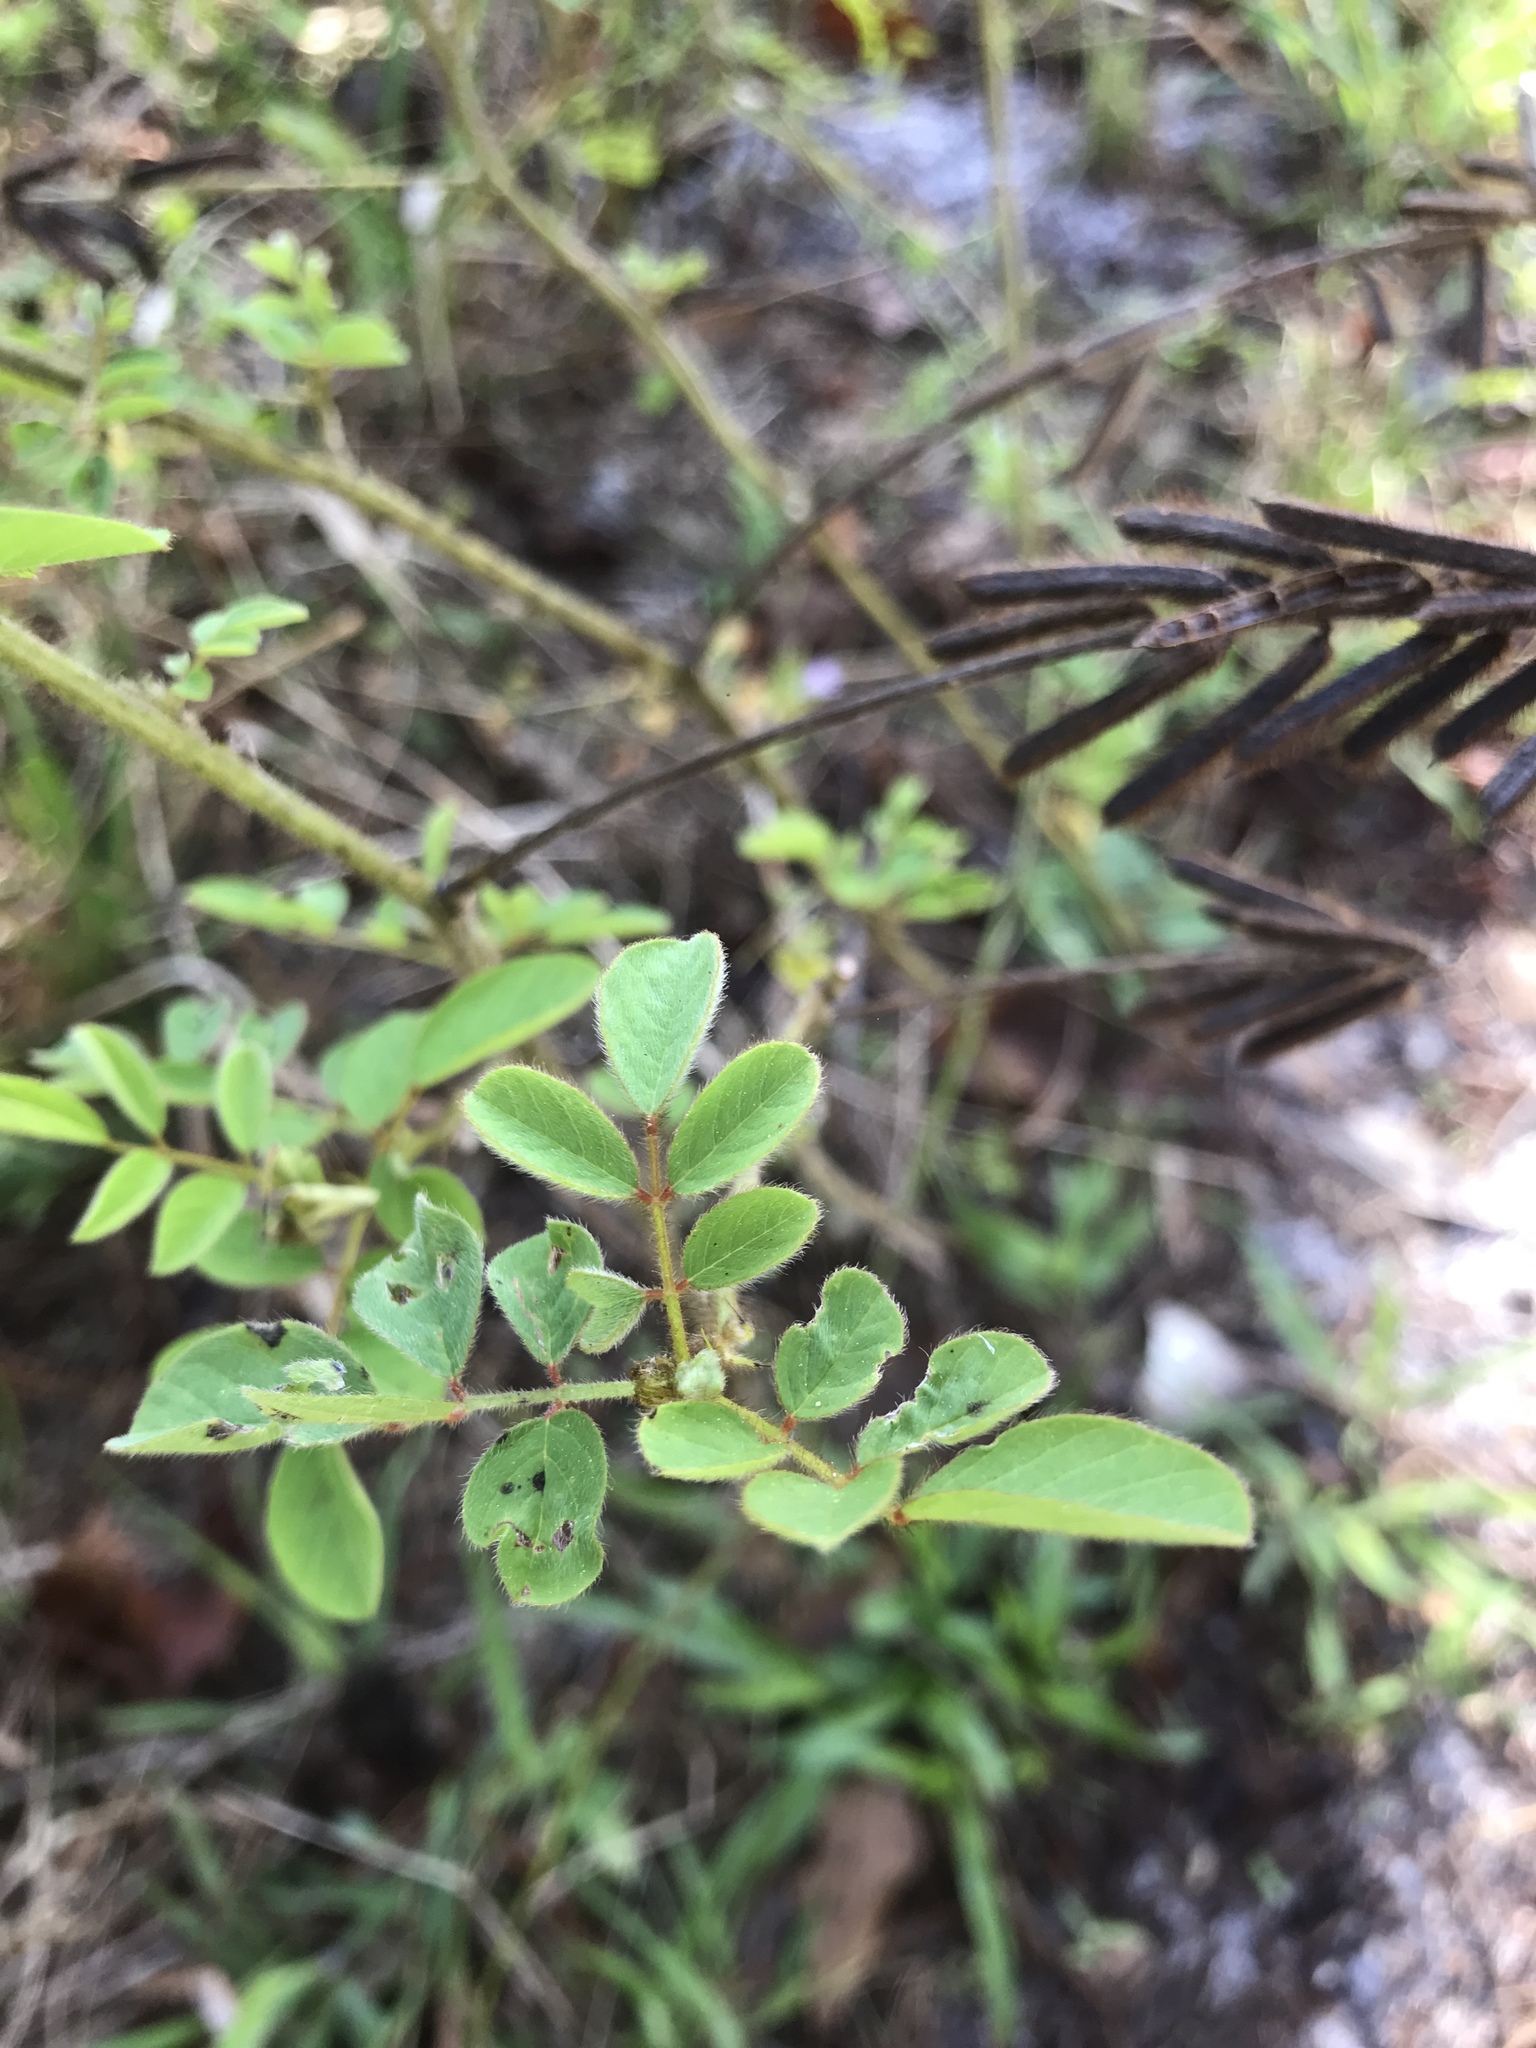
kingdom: Plantae
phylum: Tracheophyta
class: Magnoliopsida
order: Fabales
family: Fabaceae
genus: Indigofera
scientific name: Indigofera hirsuta
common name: Hairy indigo
